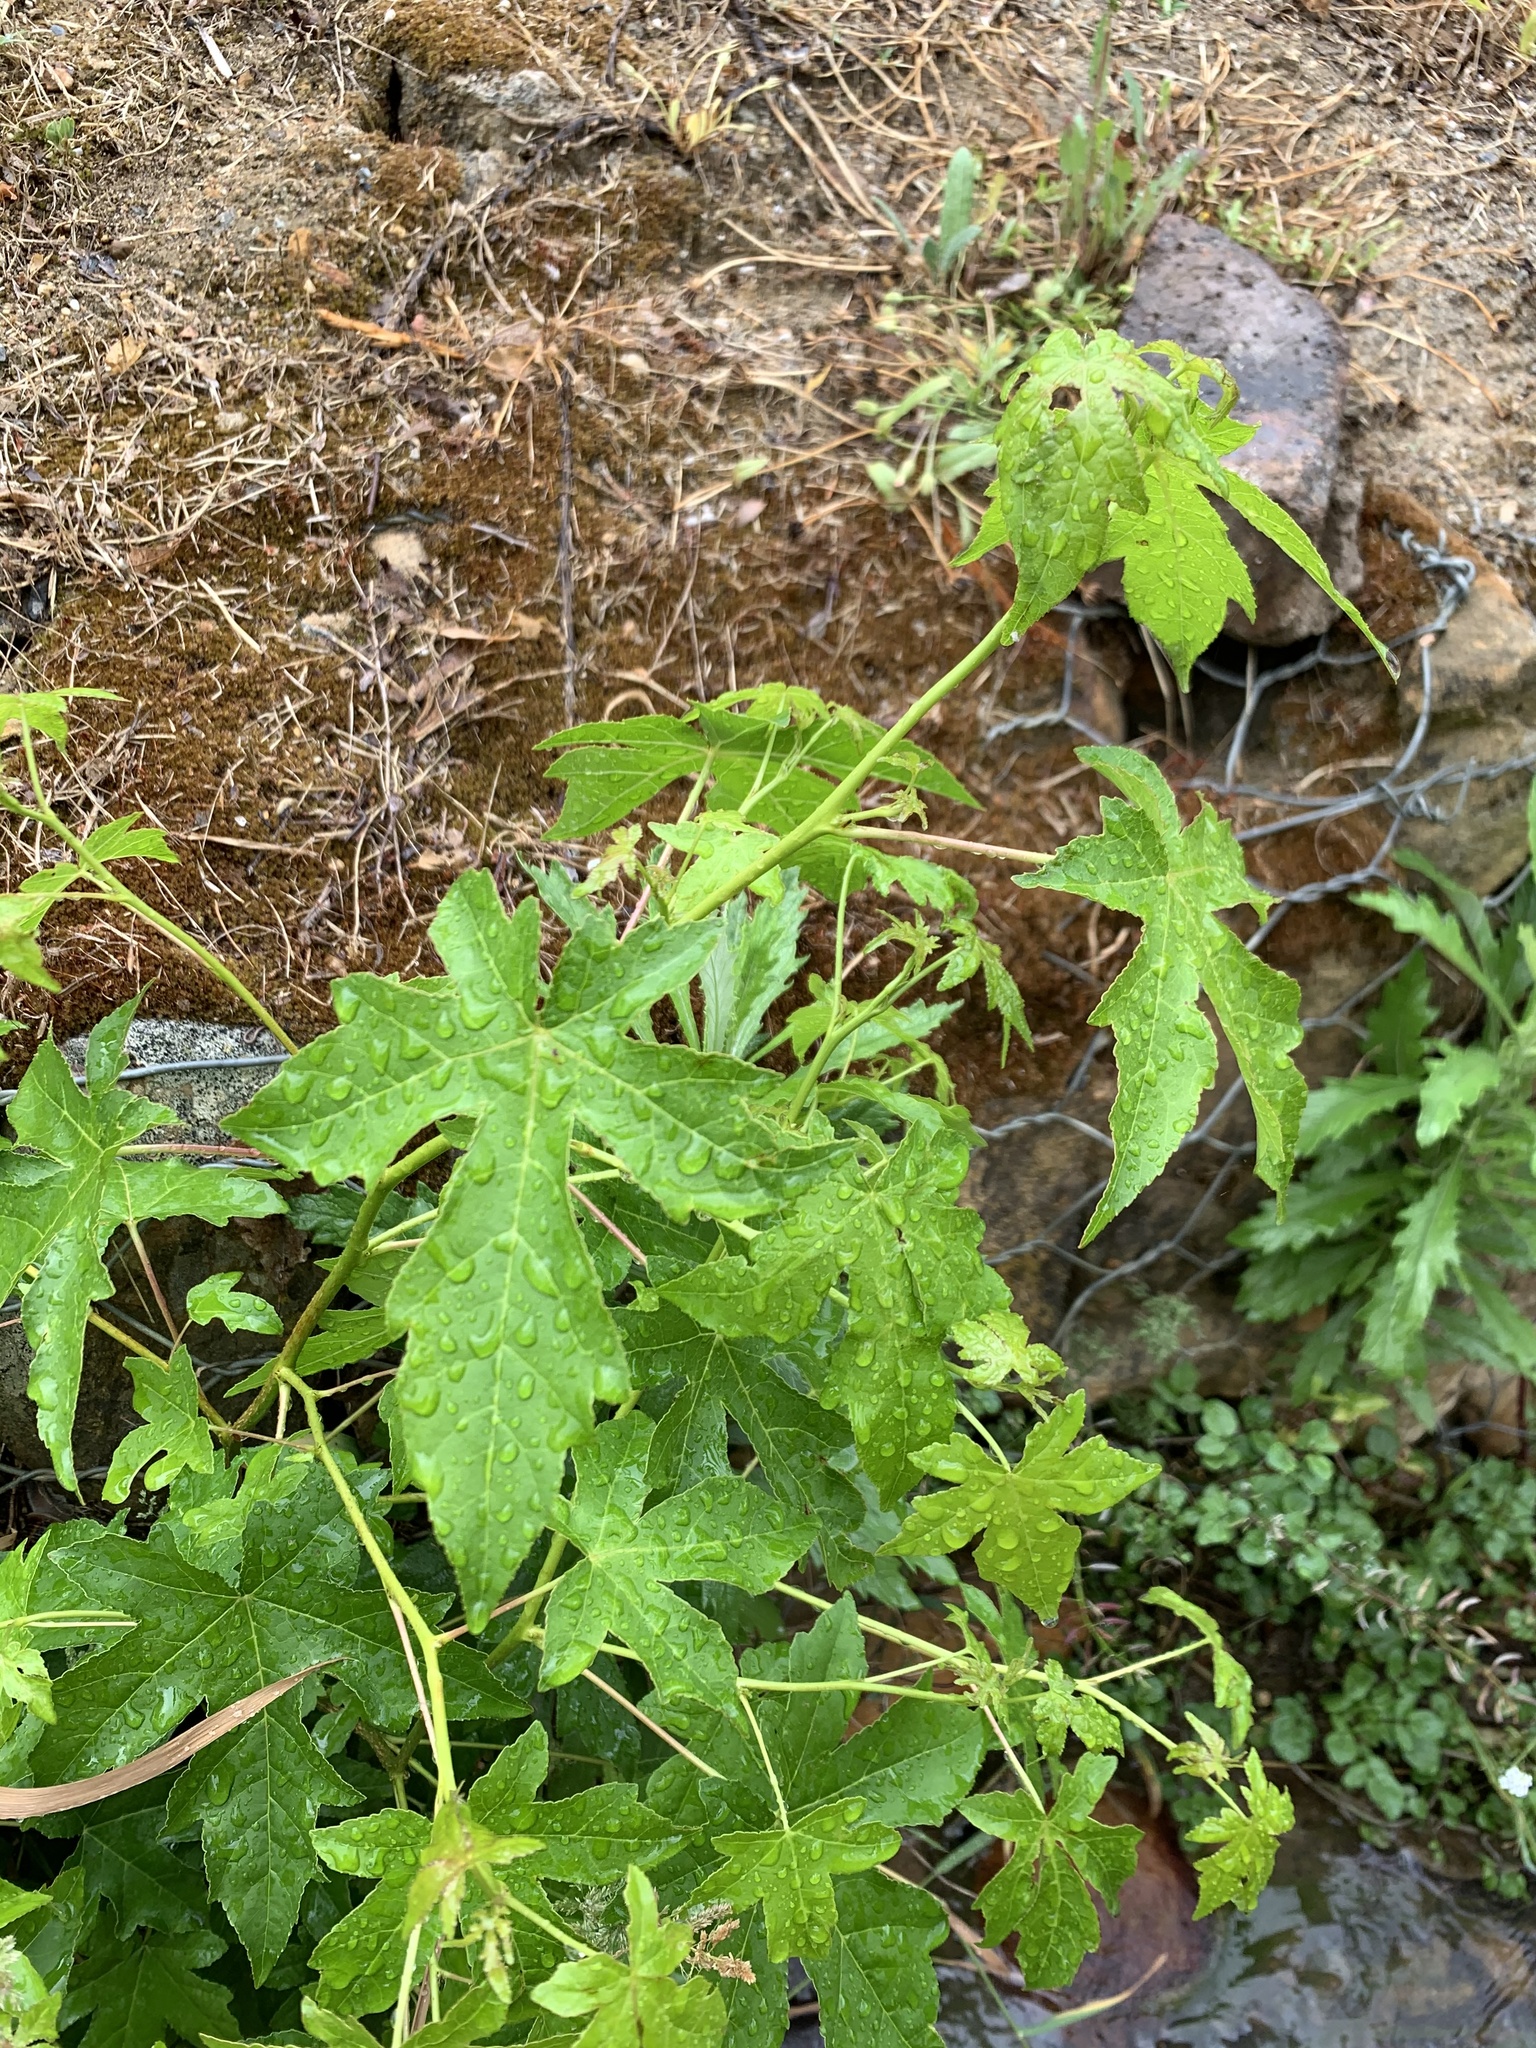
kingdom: Plantae
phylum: Tracheophyta
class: Magnoliopsida
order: Saxifragales
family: Altingiaceae
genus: Liquidambar
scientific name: Liquidambar styraciflua
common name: Sweet gum
